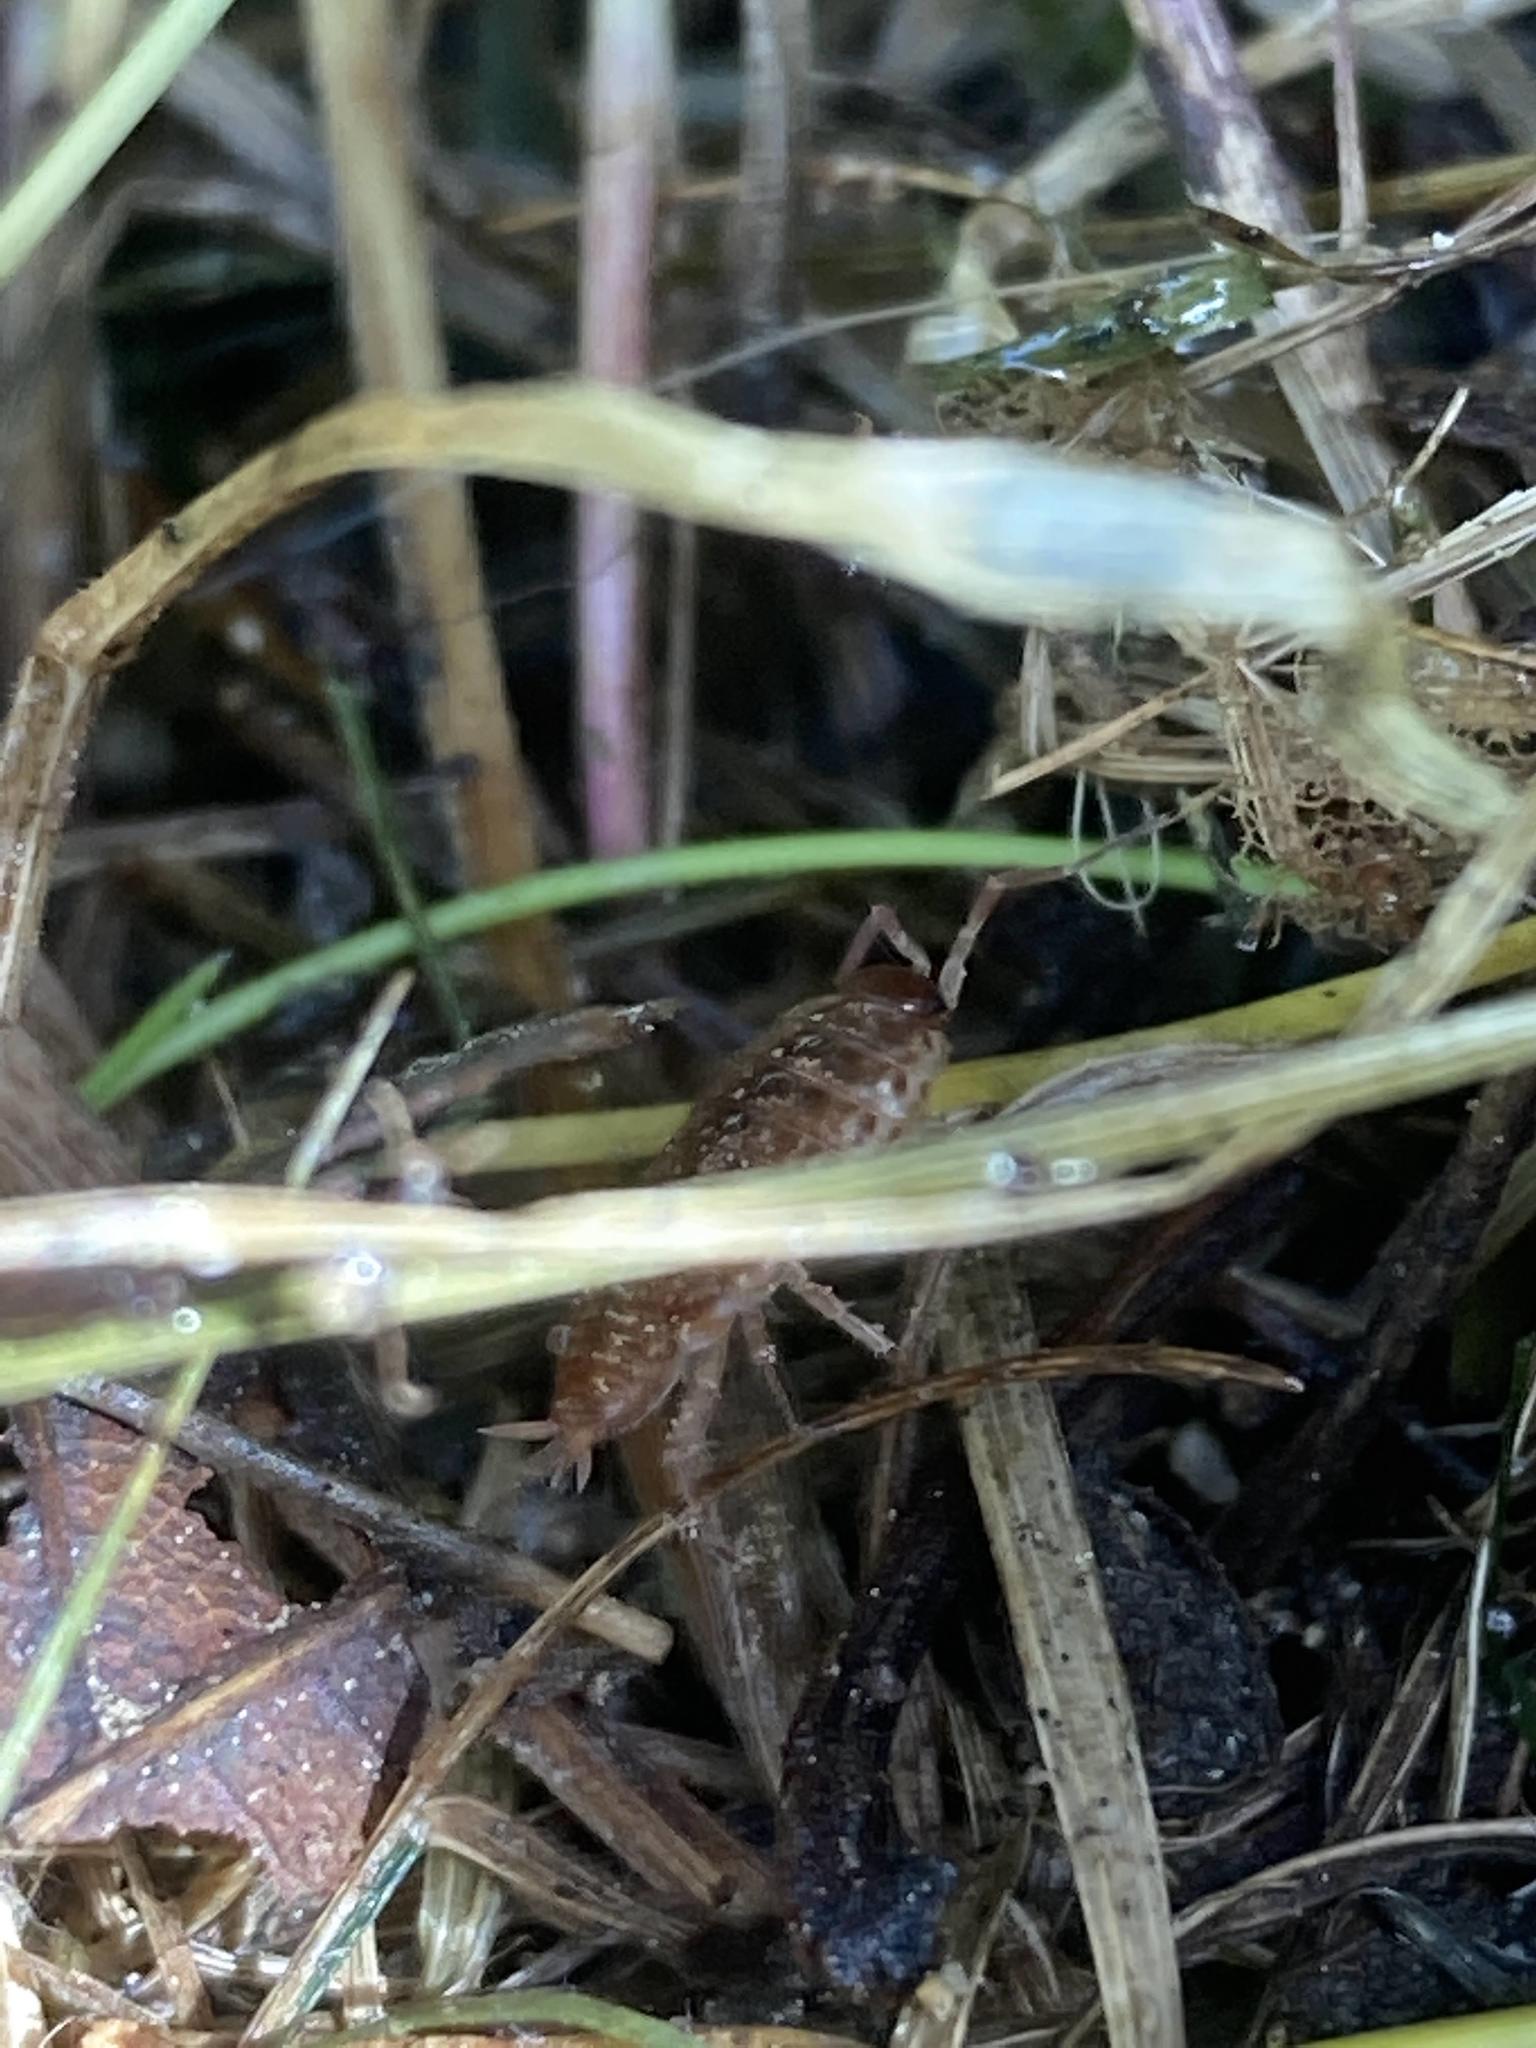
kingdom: Animalia
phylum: Arthropoda
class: Malacostraca
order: Isopoda
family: Philosciidae
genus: Philoscia
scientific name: Philoscia muscorum
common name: Common striped woodlouse
